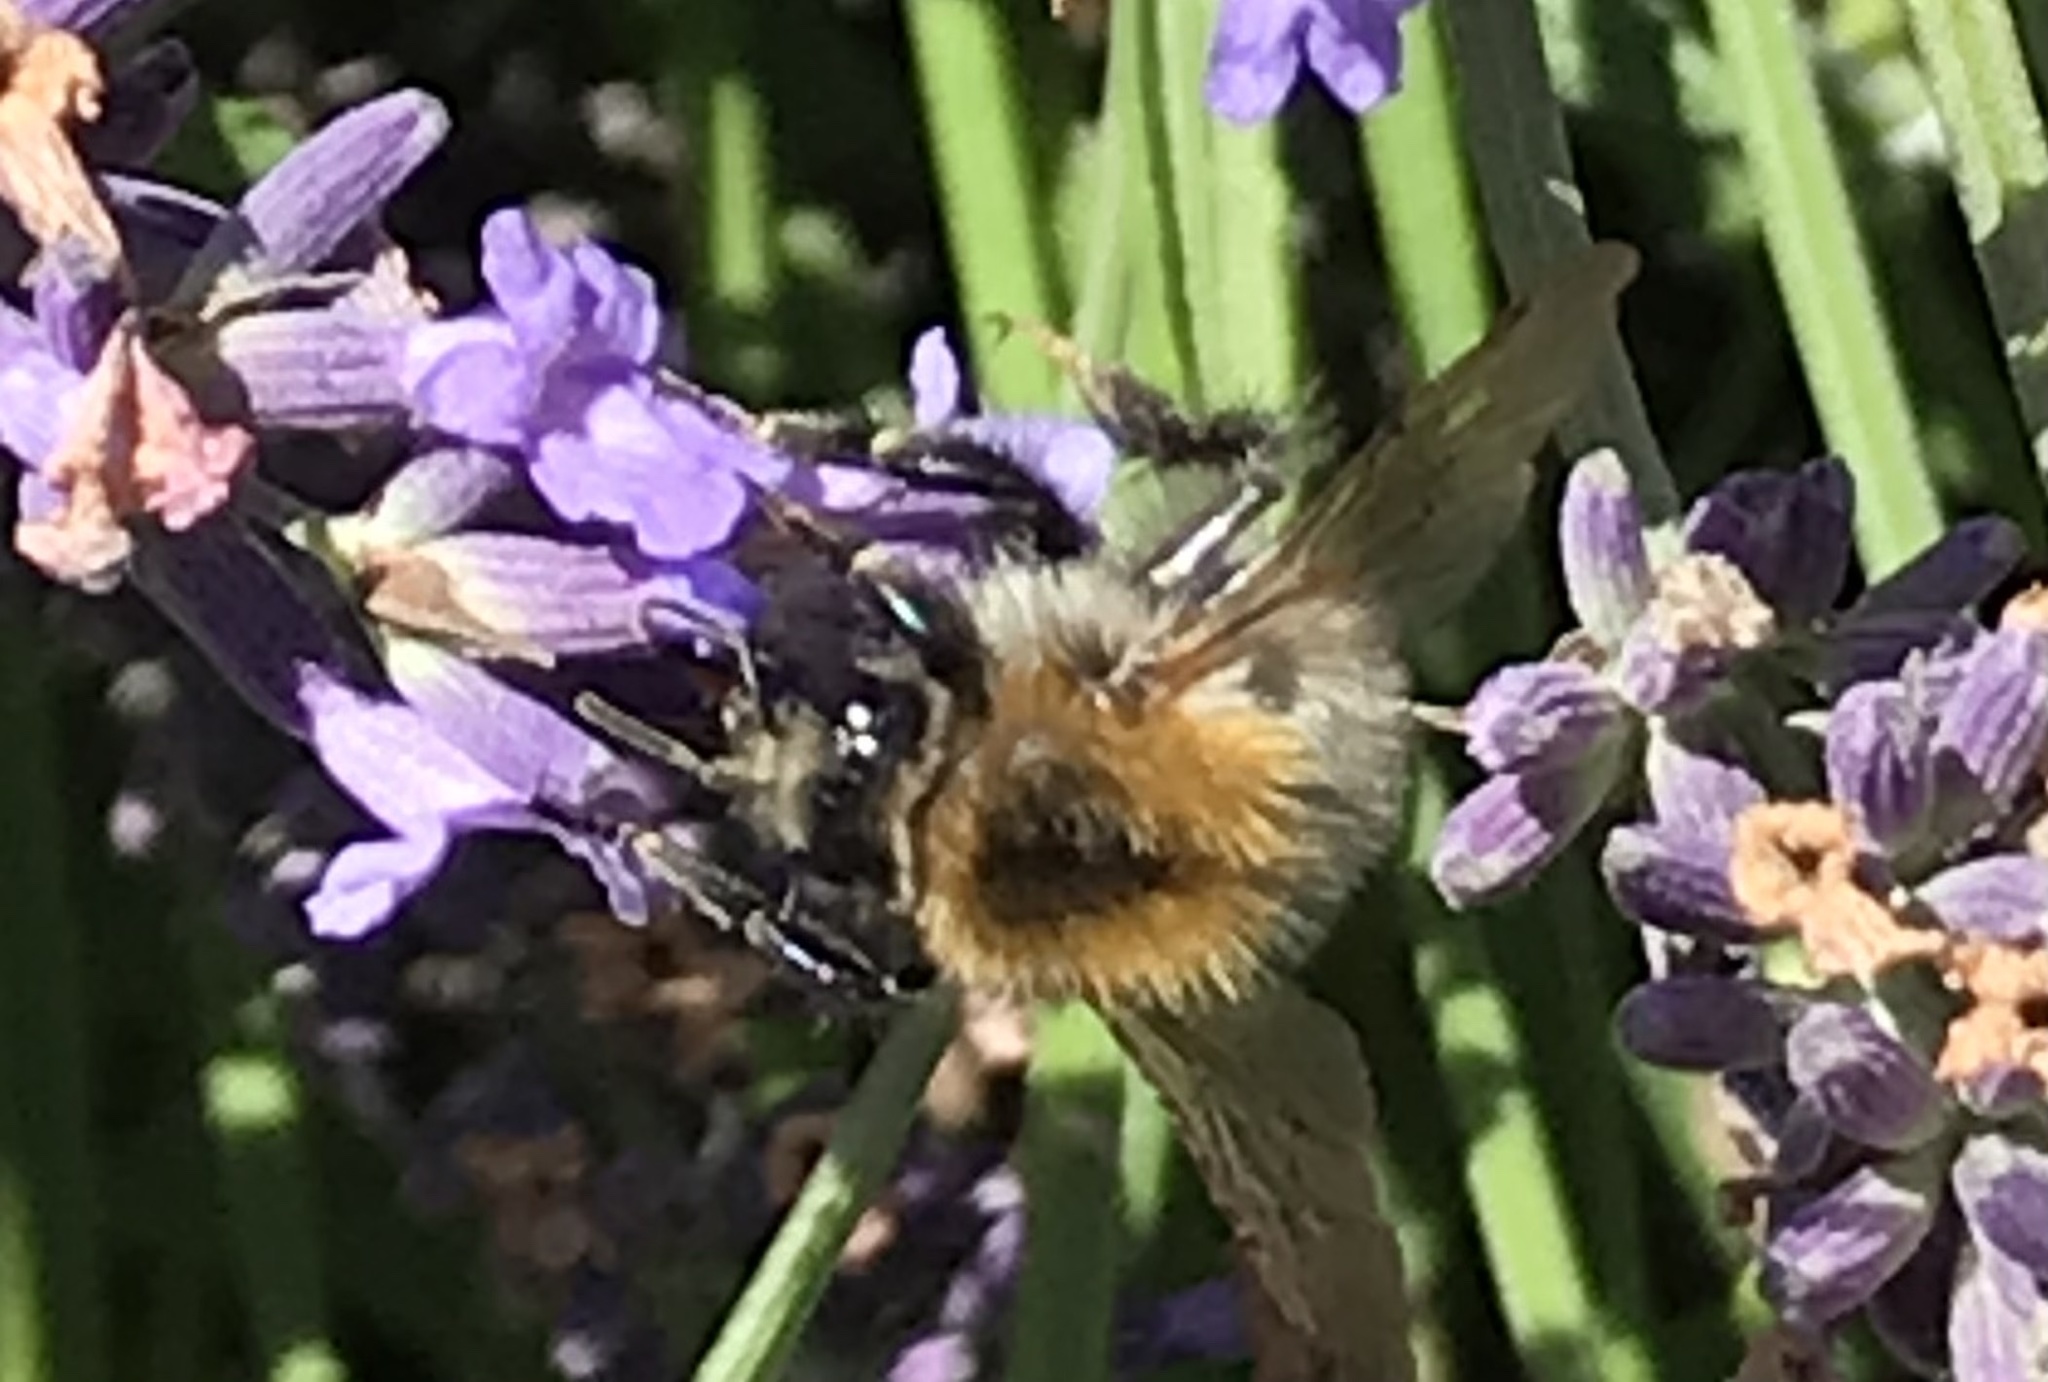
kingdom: Animalia
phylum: Arthropoda
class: Insecta
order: Hymenoptera
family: Apidae
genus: Bombus
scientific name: Bombus pascuorum
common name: Common carder bee
